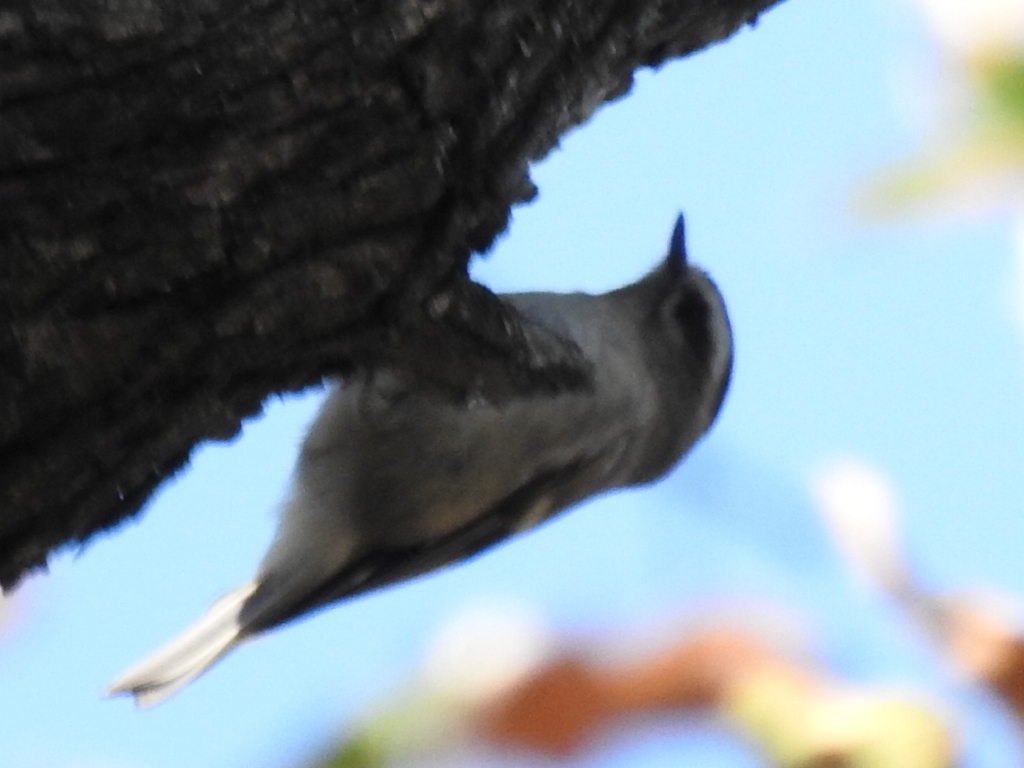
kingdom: Animalia
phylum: Chordata
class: Aves
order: Passeriformes
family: Regulidae
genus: Regulus
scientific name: Regulus satrapa
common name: Golden-crowned kinglet
